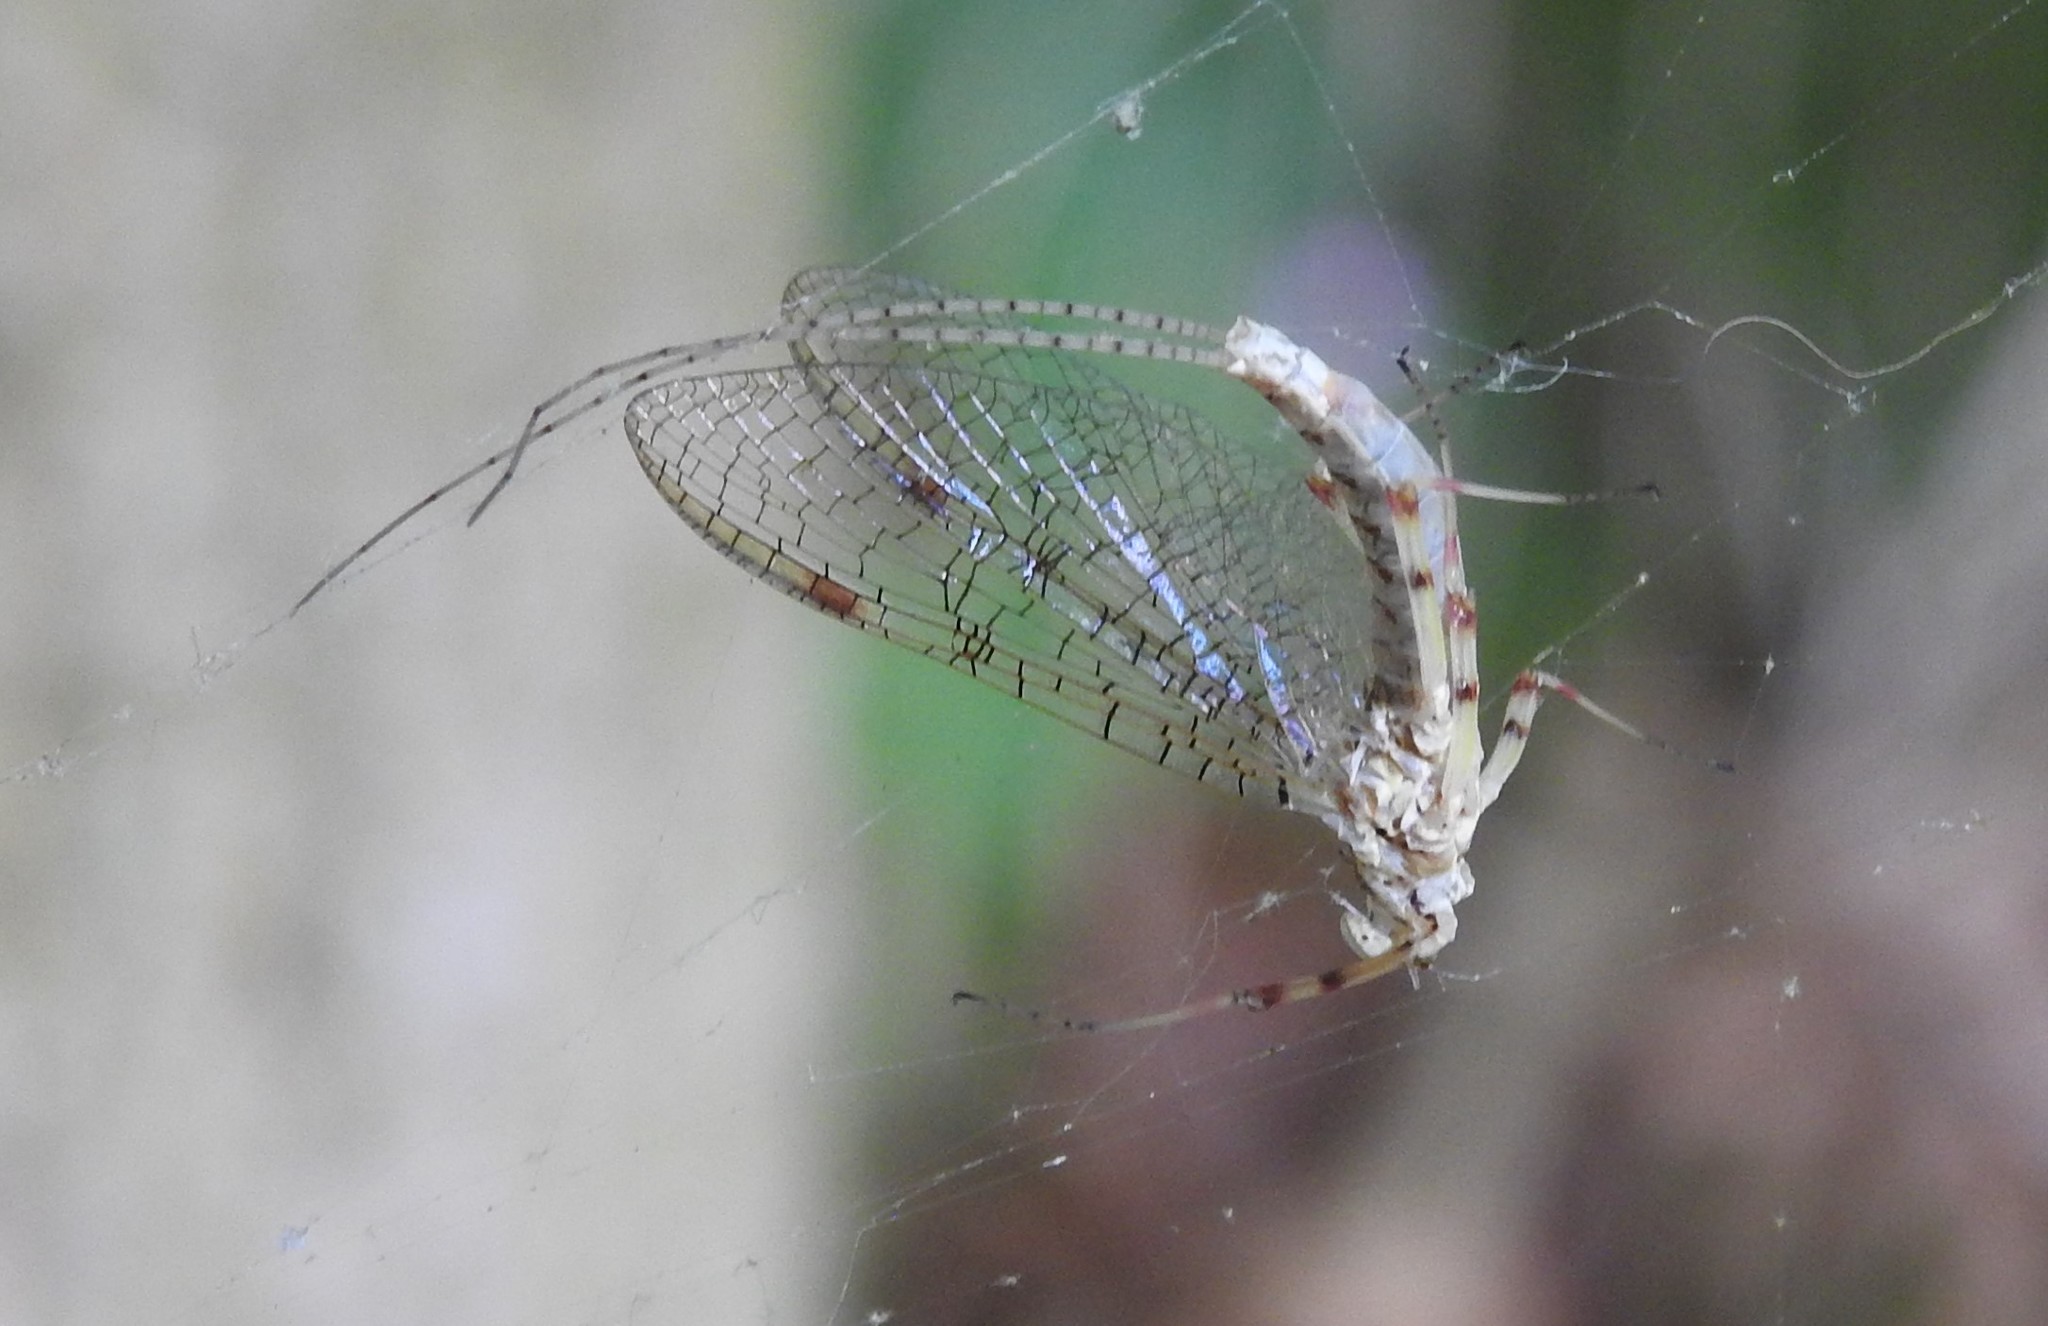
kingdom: Animalia
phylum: Arthropoda
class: Insecta
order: Ephemeroptera
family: Heptageniidae
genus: Stenonema
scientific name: Stenonema femoratum
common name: Dark cahill
